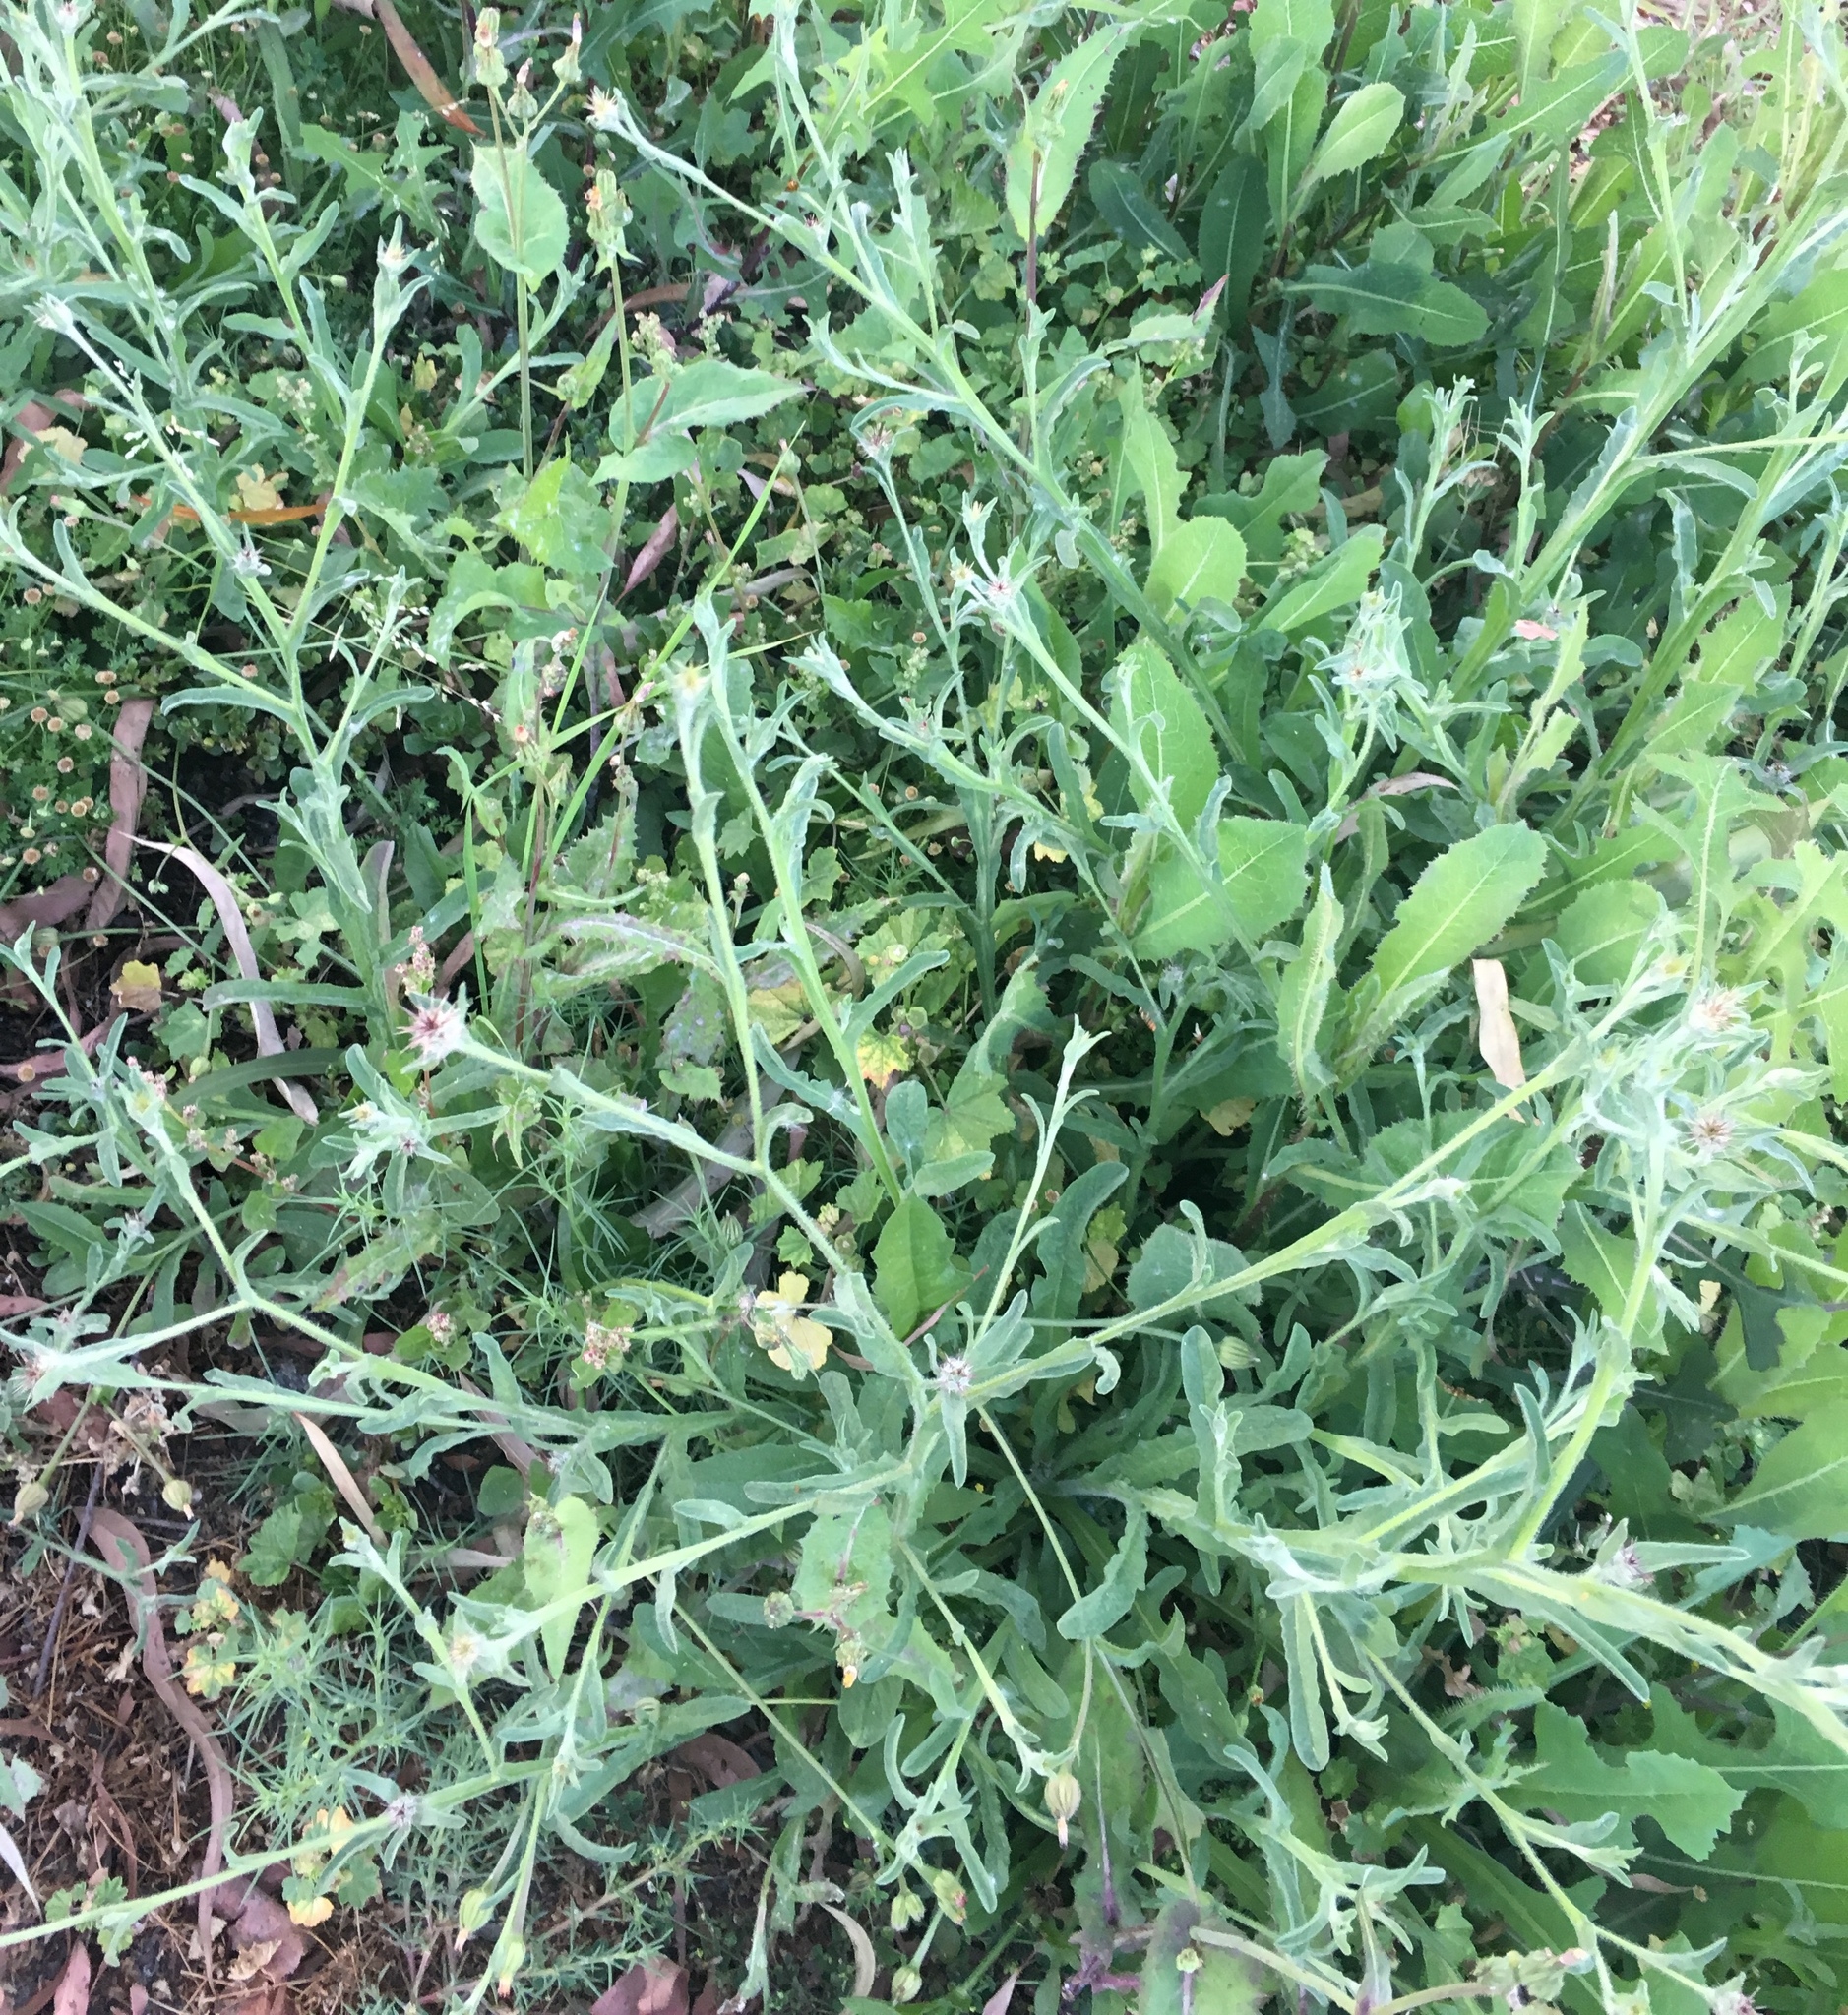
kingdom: Plantae
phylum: Tracheophyta
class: Magnoliopsida
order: Asterales
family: Asteraceae
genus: Centaurea
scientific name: Centaurea melitensis
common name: Maltese star-thistle
